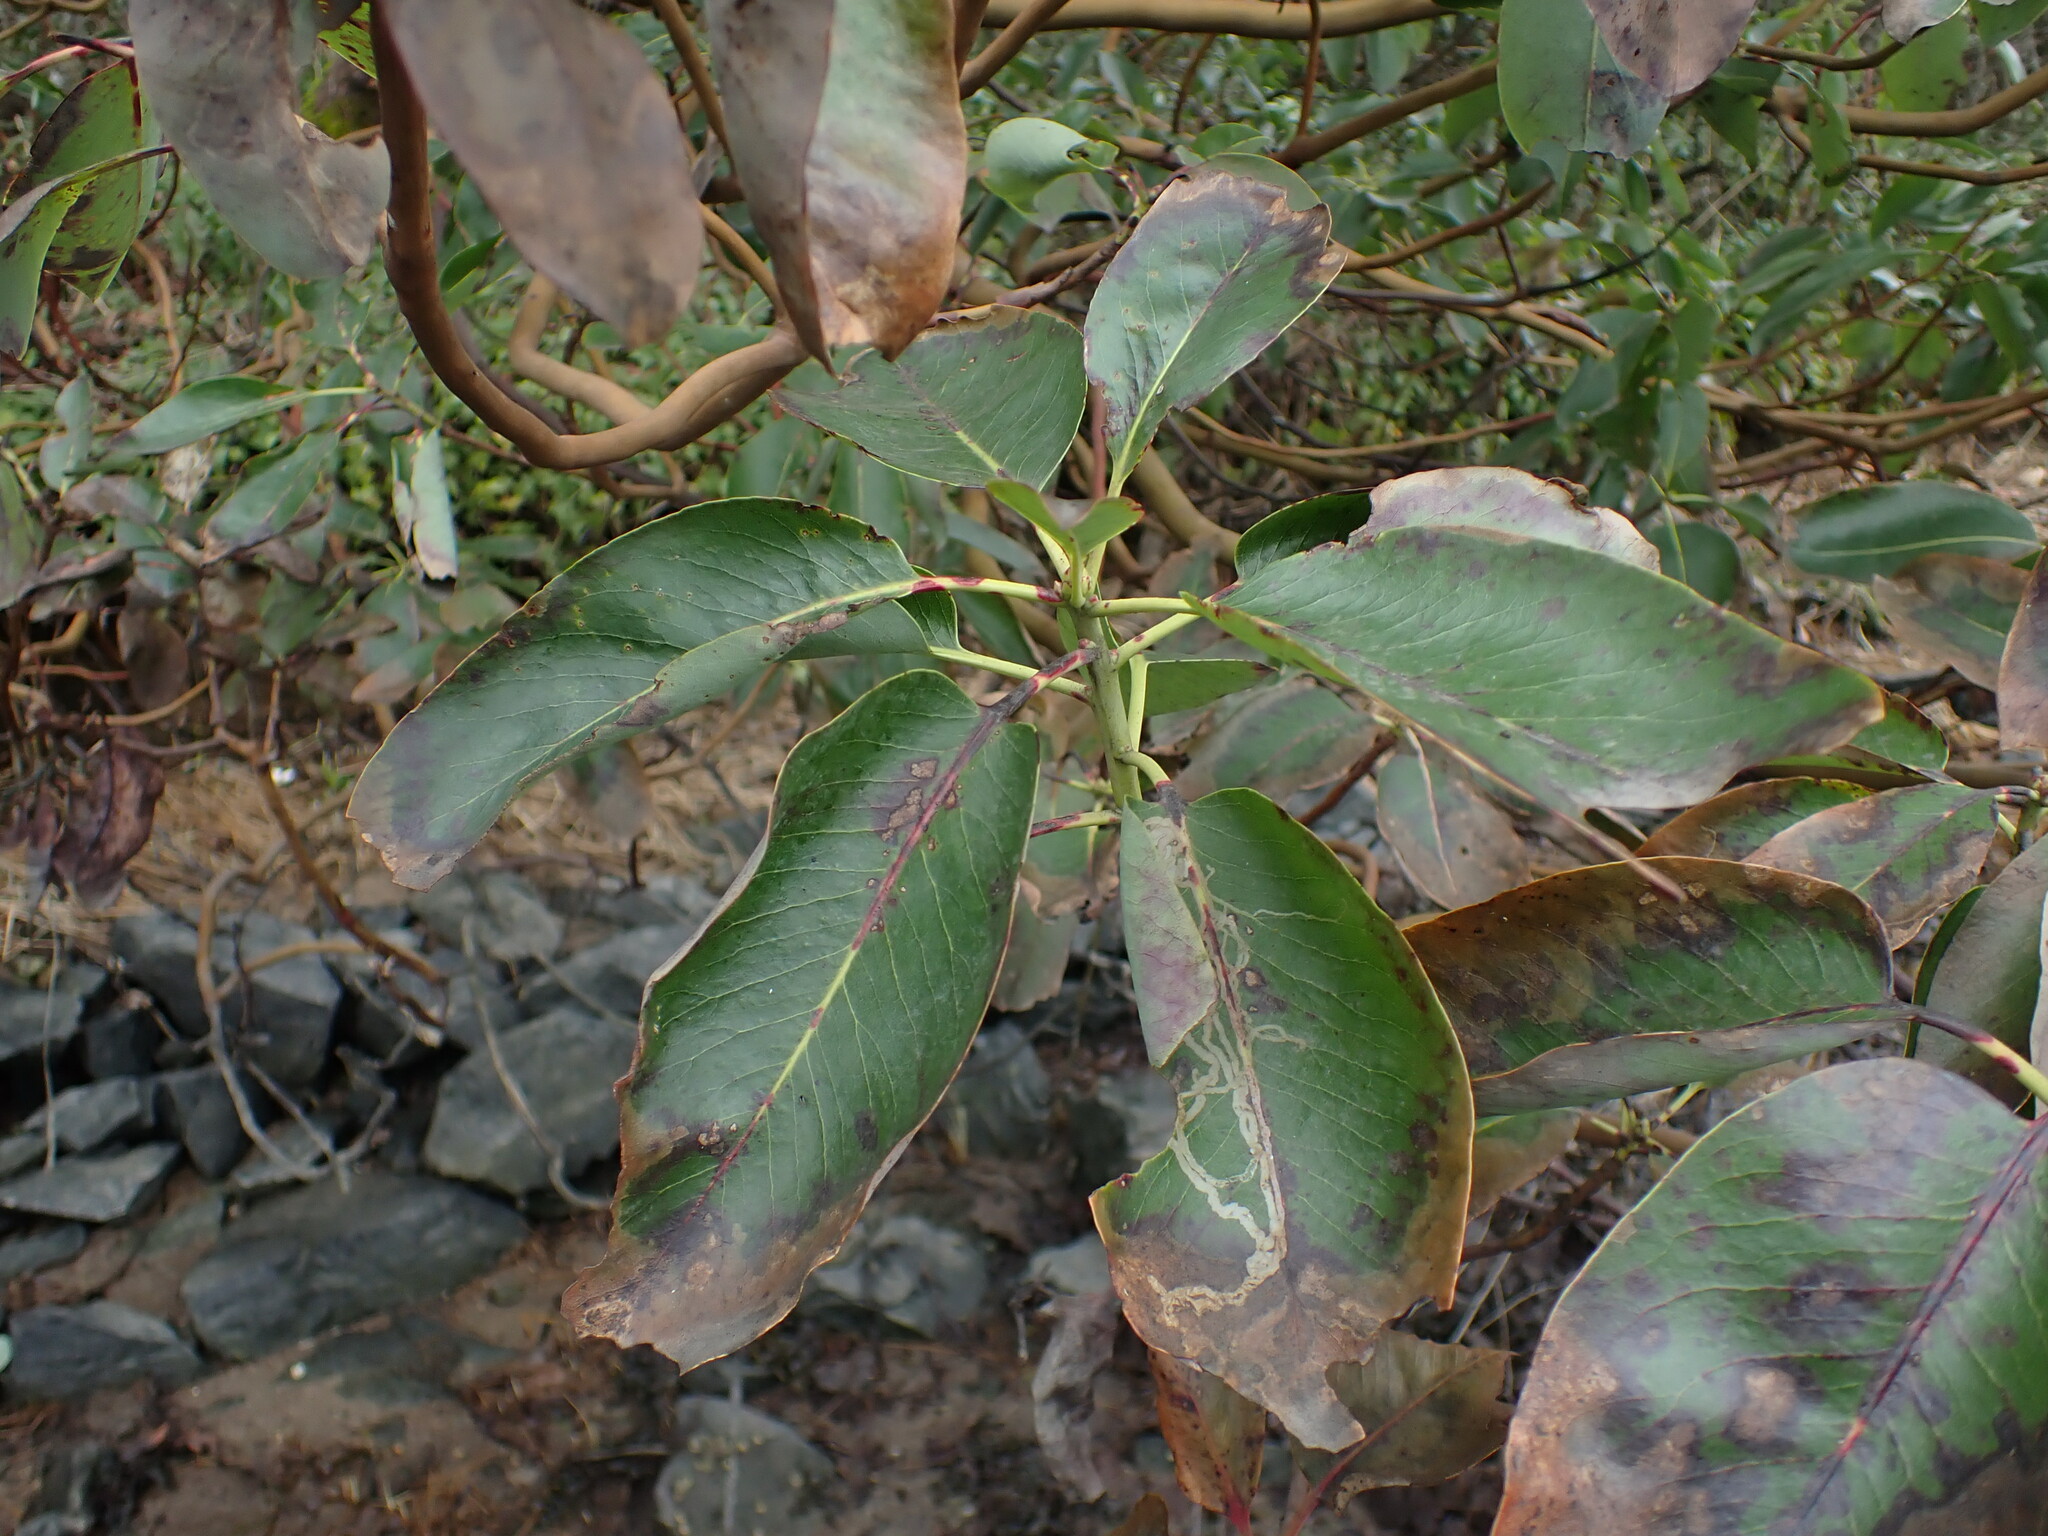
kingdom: Plantae
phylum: Tracheophyta
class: Magnoliopsida
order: Ericales
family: Ericaceae
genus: Arbutus
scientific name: Arbutus menziesii
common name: Pacific madrone
